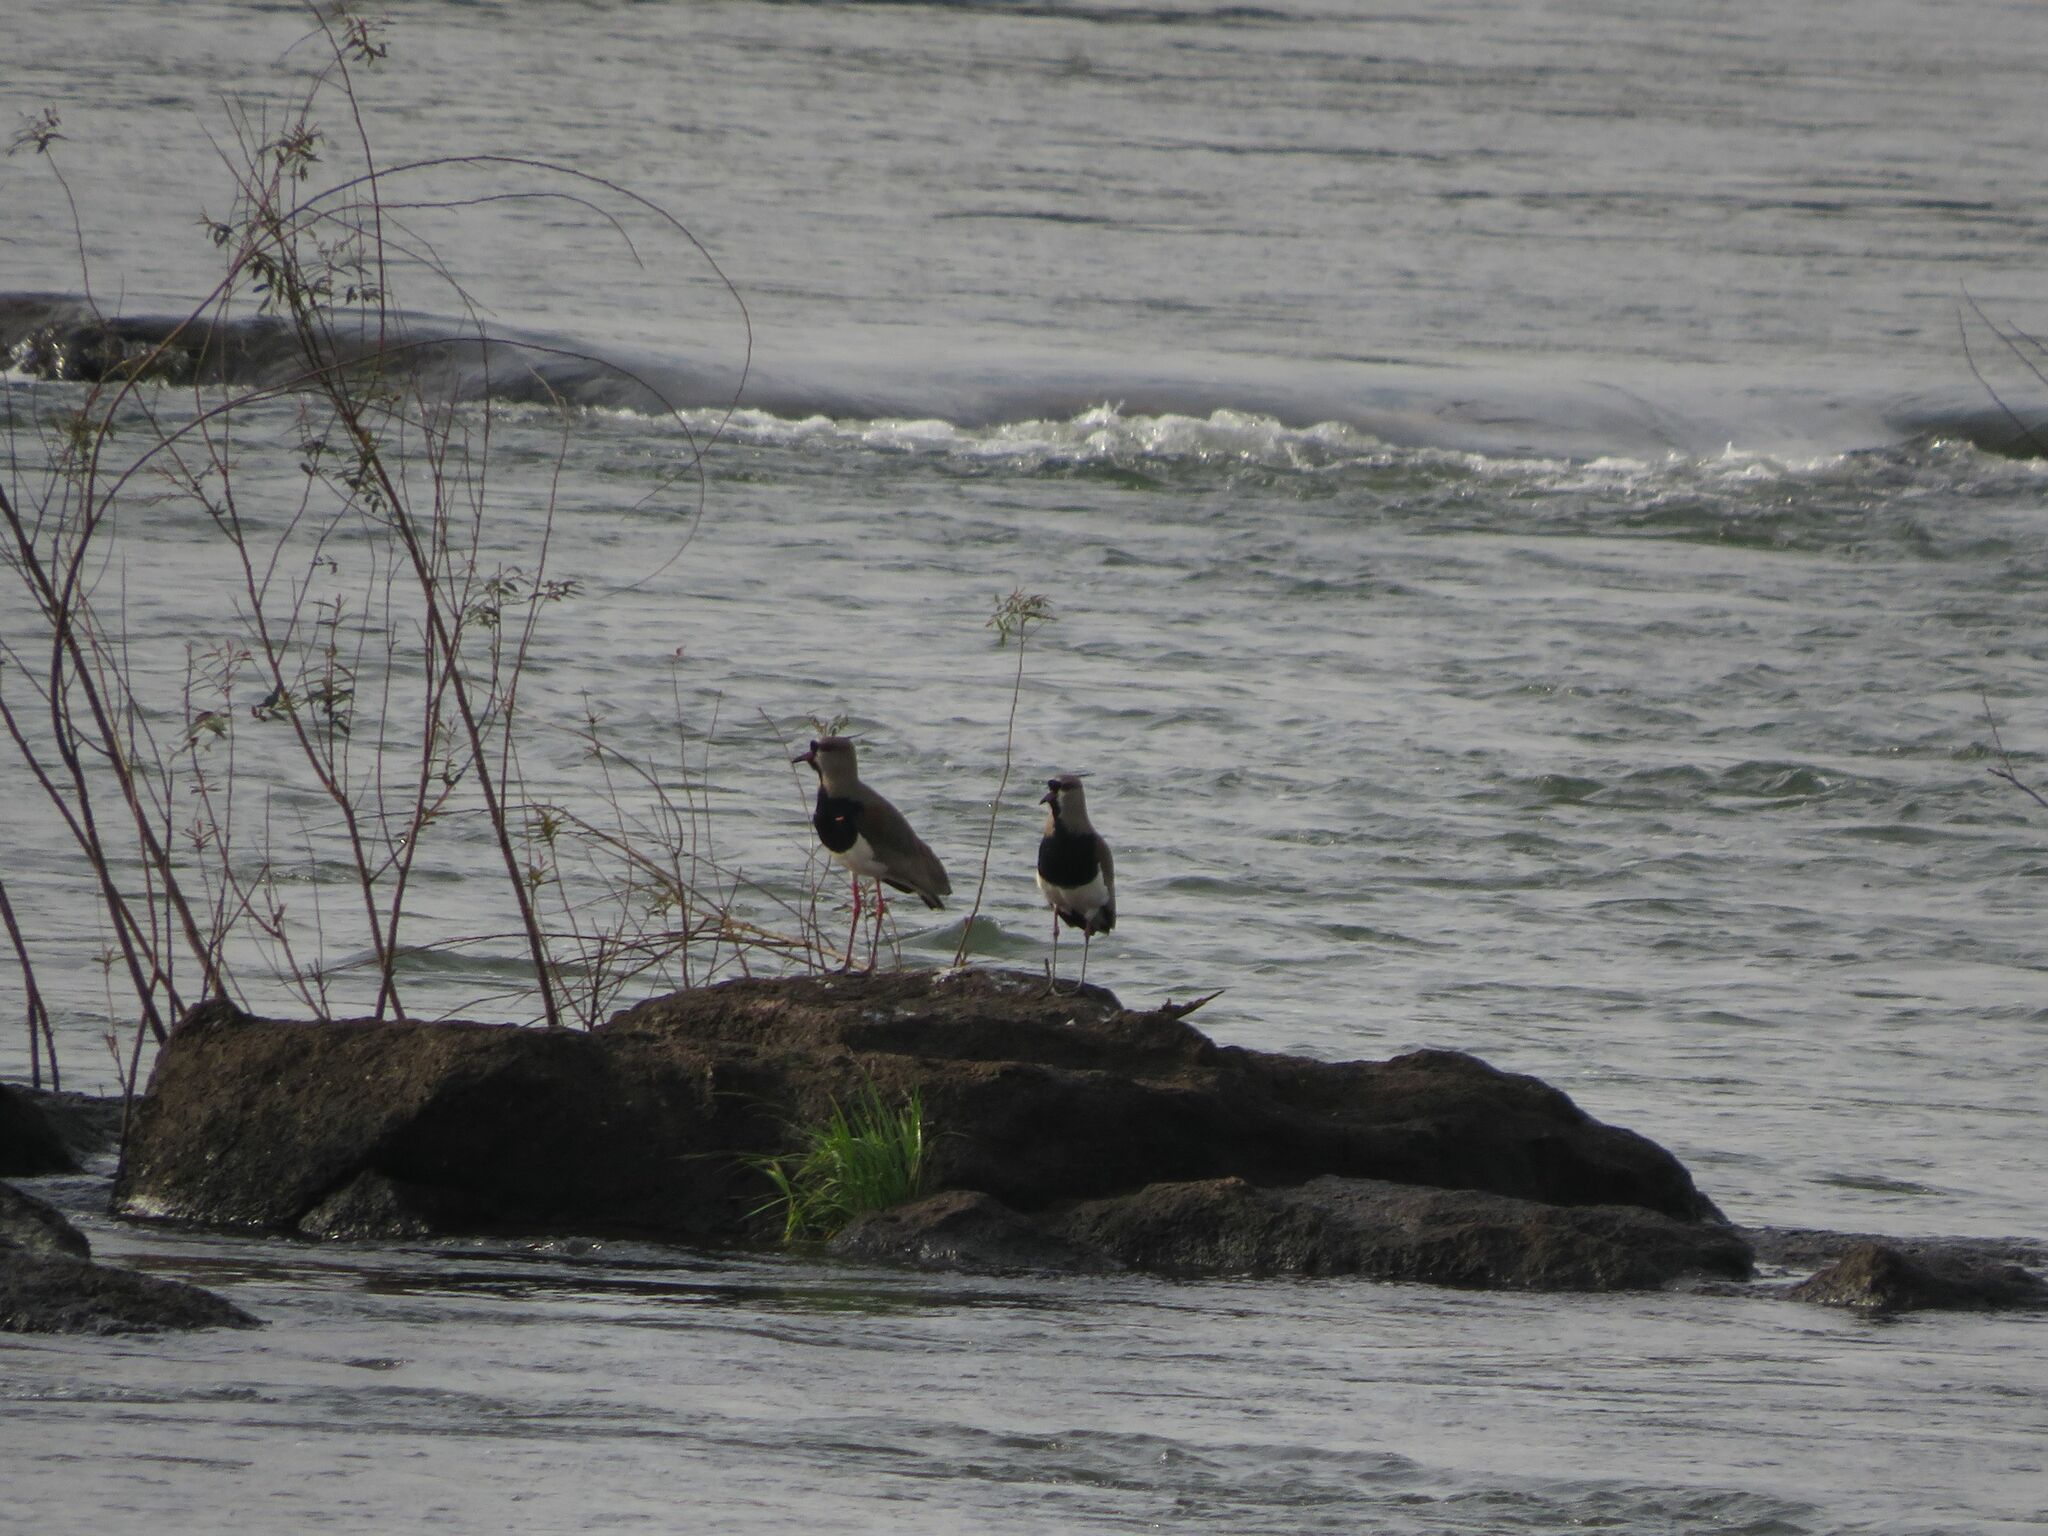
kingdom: Animalia
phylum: Chordata
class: Aves
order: Charadriiformes
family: Charadriidae
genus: Vanellus
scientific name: Vanellus chilensis
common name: Southern lapwing
